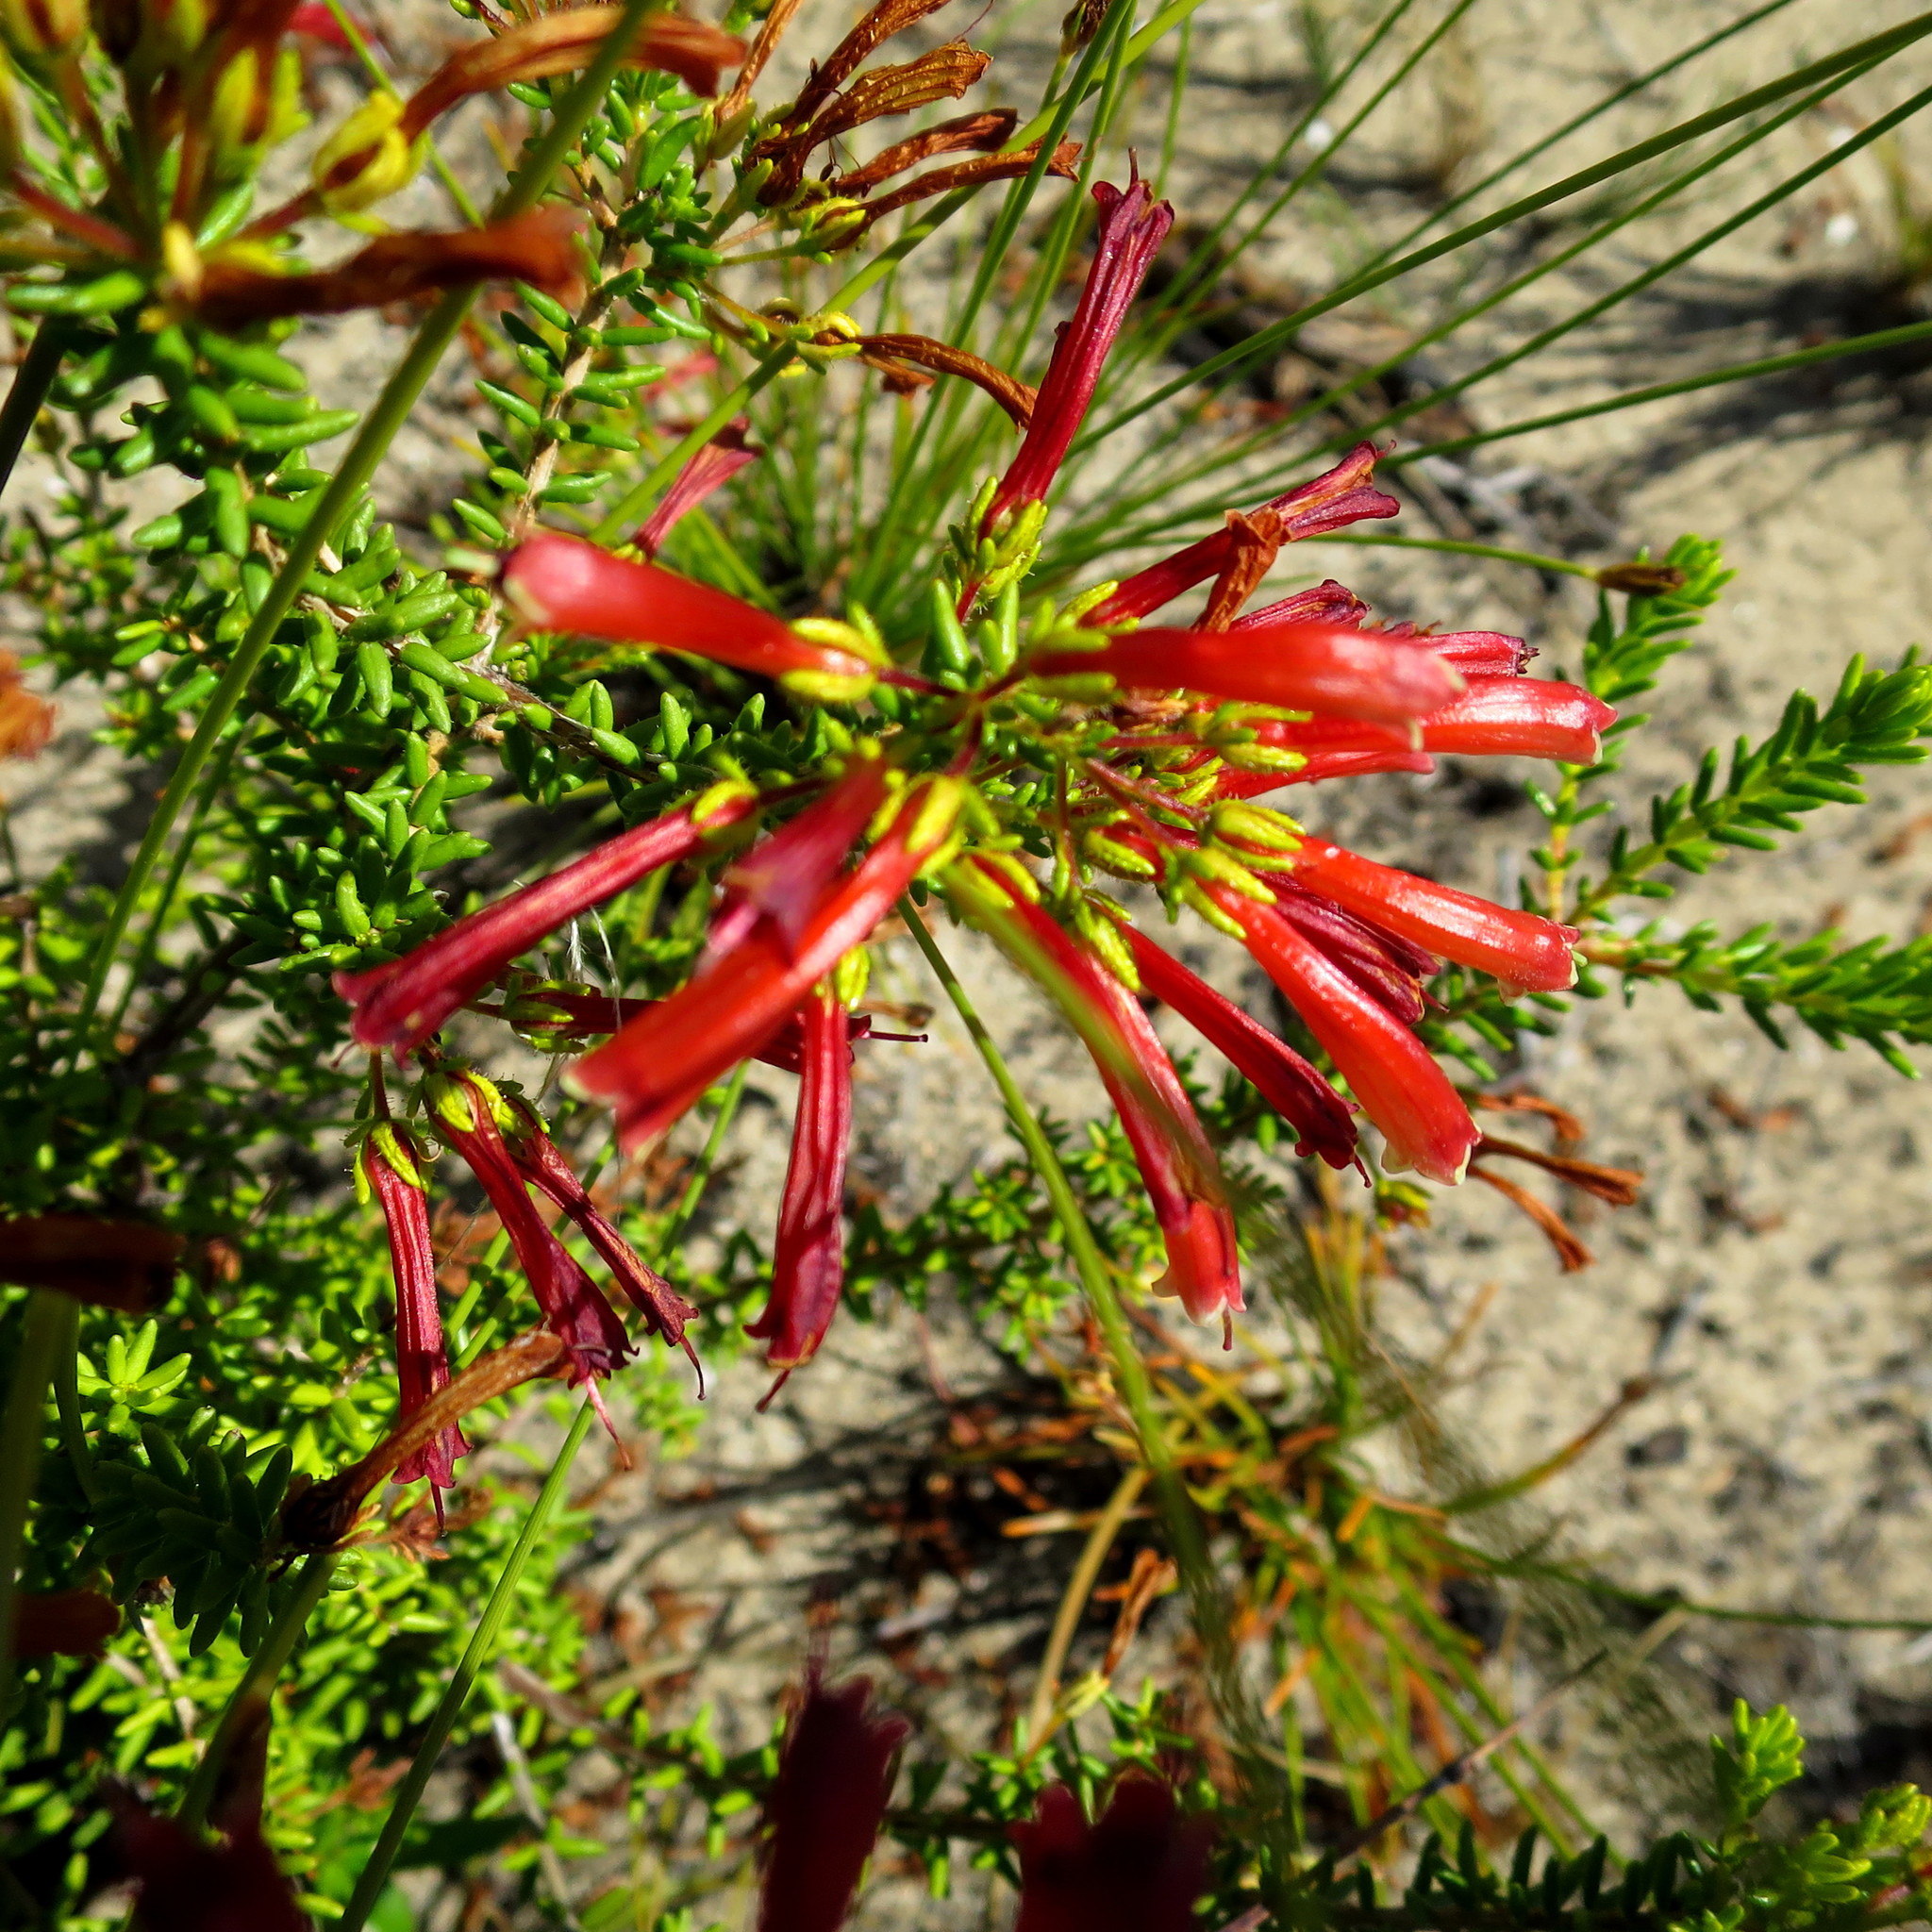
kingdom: Plantae
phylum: Tracheophyta
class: Magnoliopsida
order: Ericales
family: Ericaceae
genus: Erica
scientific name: Erica glandulosa
